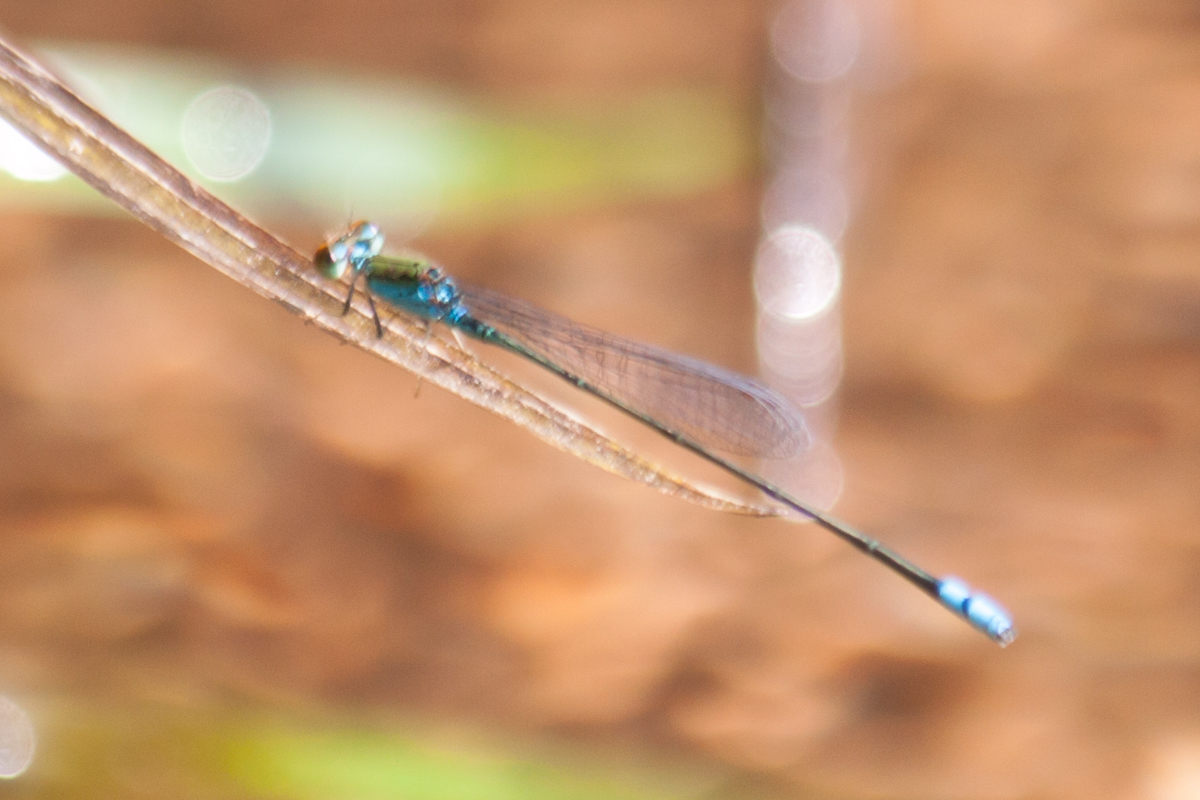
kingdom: Animalia
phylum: Arthropoda
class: Insecta
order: Odonata
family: Coenagrionidae
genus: Pseudagrion
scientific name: Pseudagrion rubriceps
